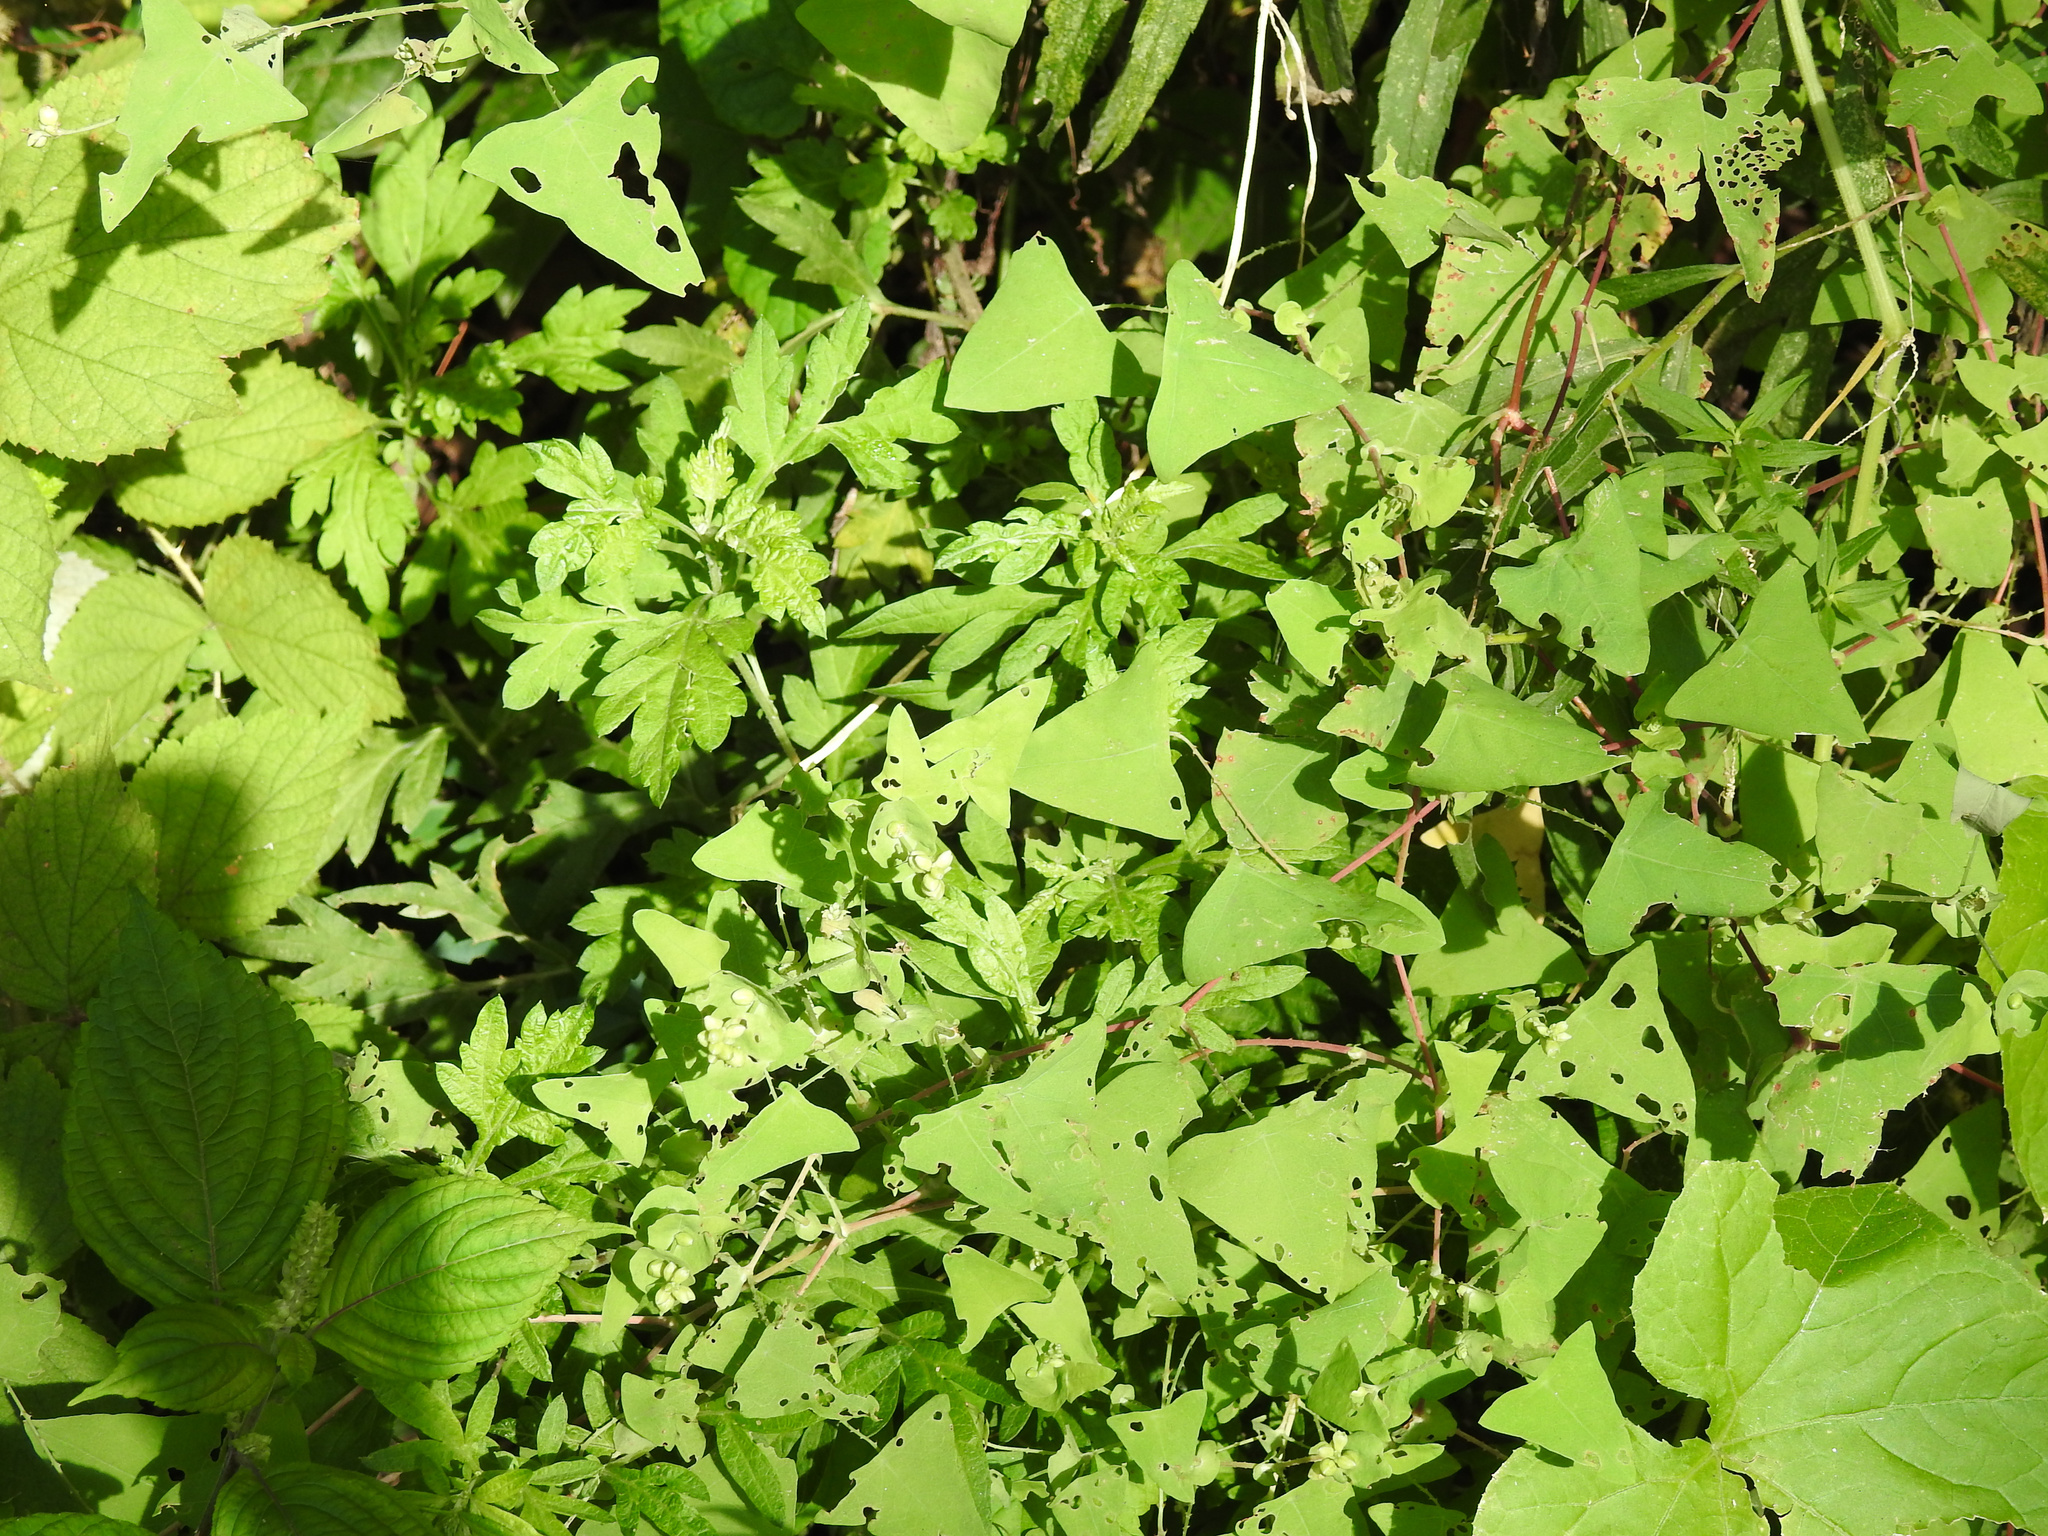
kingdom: Plantae
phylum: Tracheophyta
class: Magnoliopsida
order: Caryophyllales
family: Polygonaceae
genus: Persicaria
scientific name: Persicaria perfoliata
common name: Asiatic tearthumb
